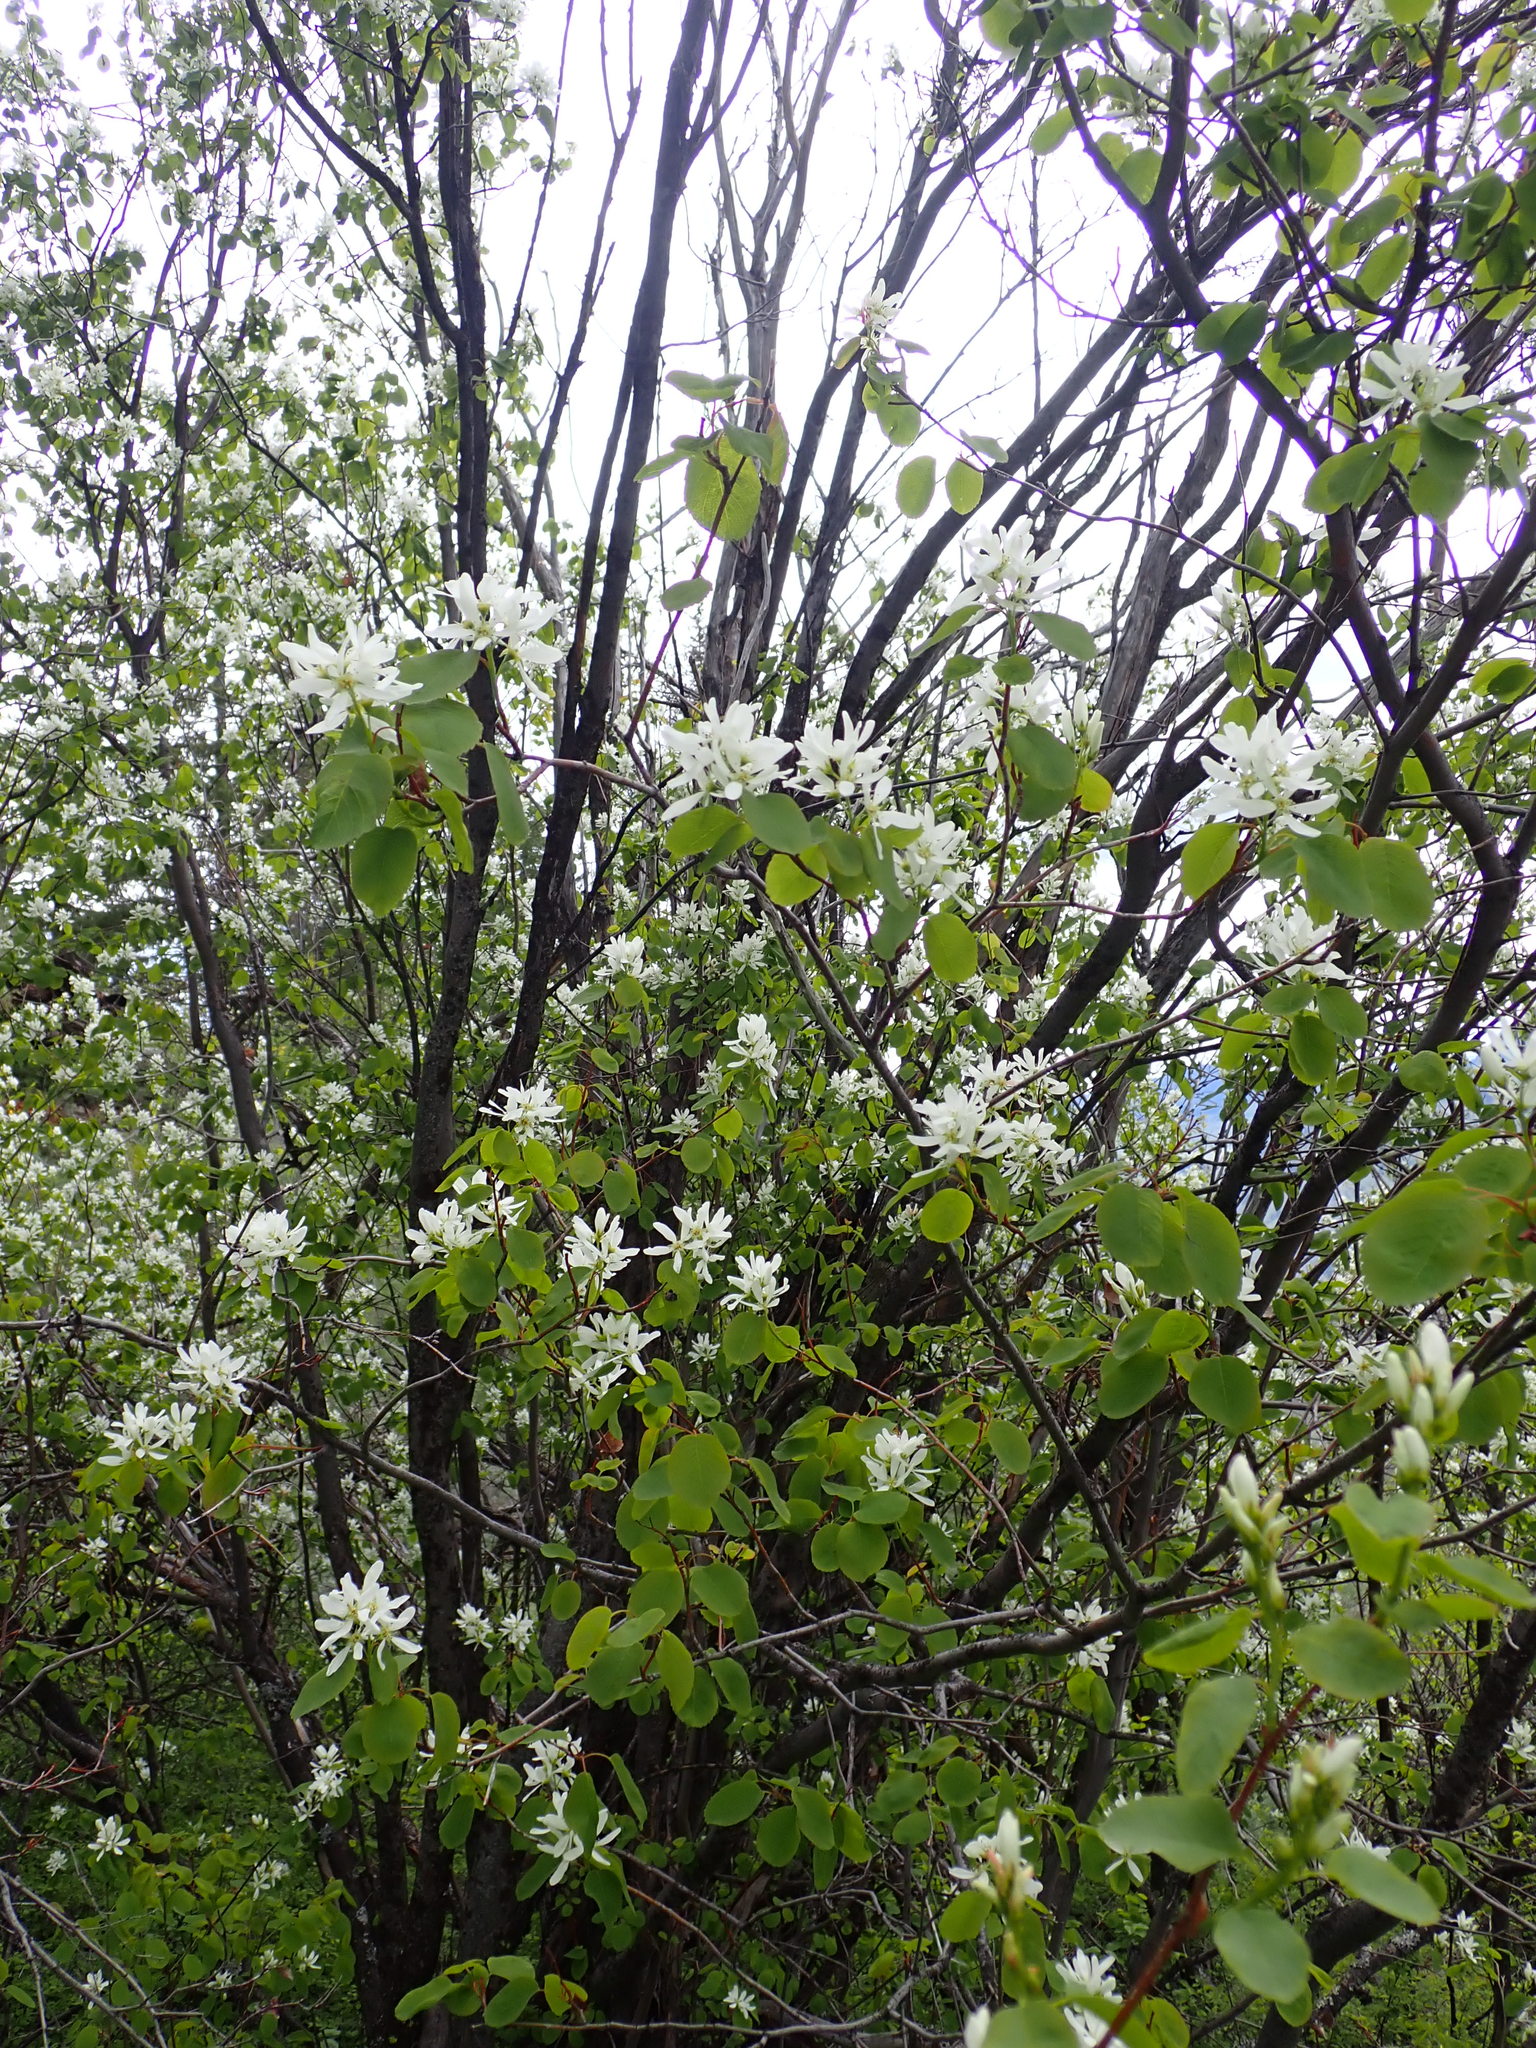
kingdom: Plantae
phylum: Tracheophyta
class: Magnoliopsida
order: Rosales
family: Rosaceae
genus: Amelanchier
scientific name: Amelanchier alnifolia
